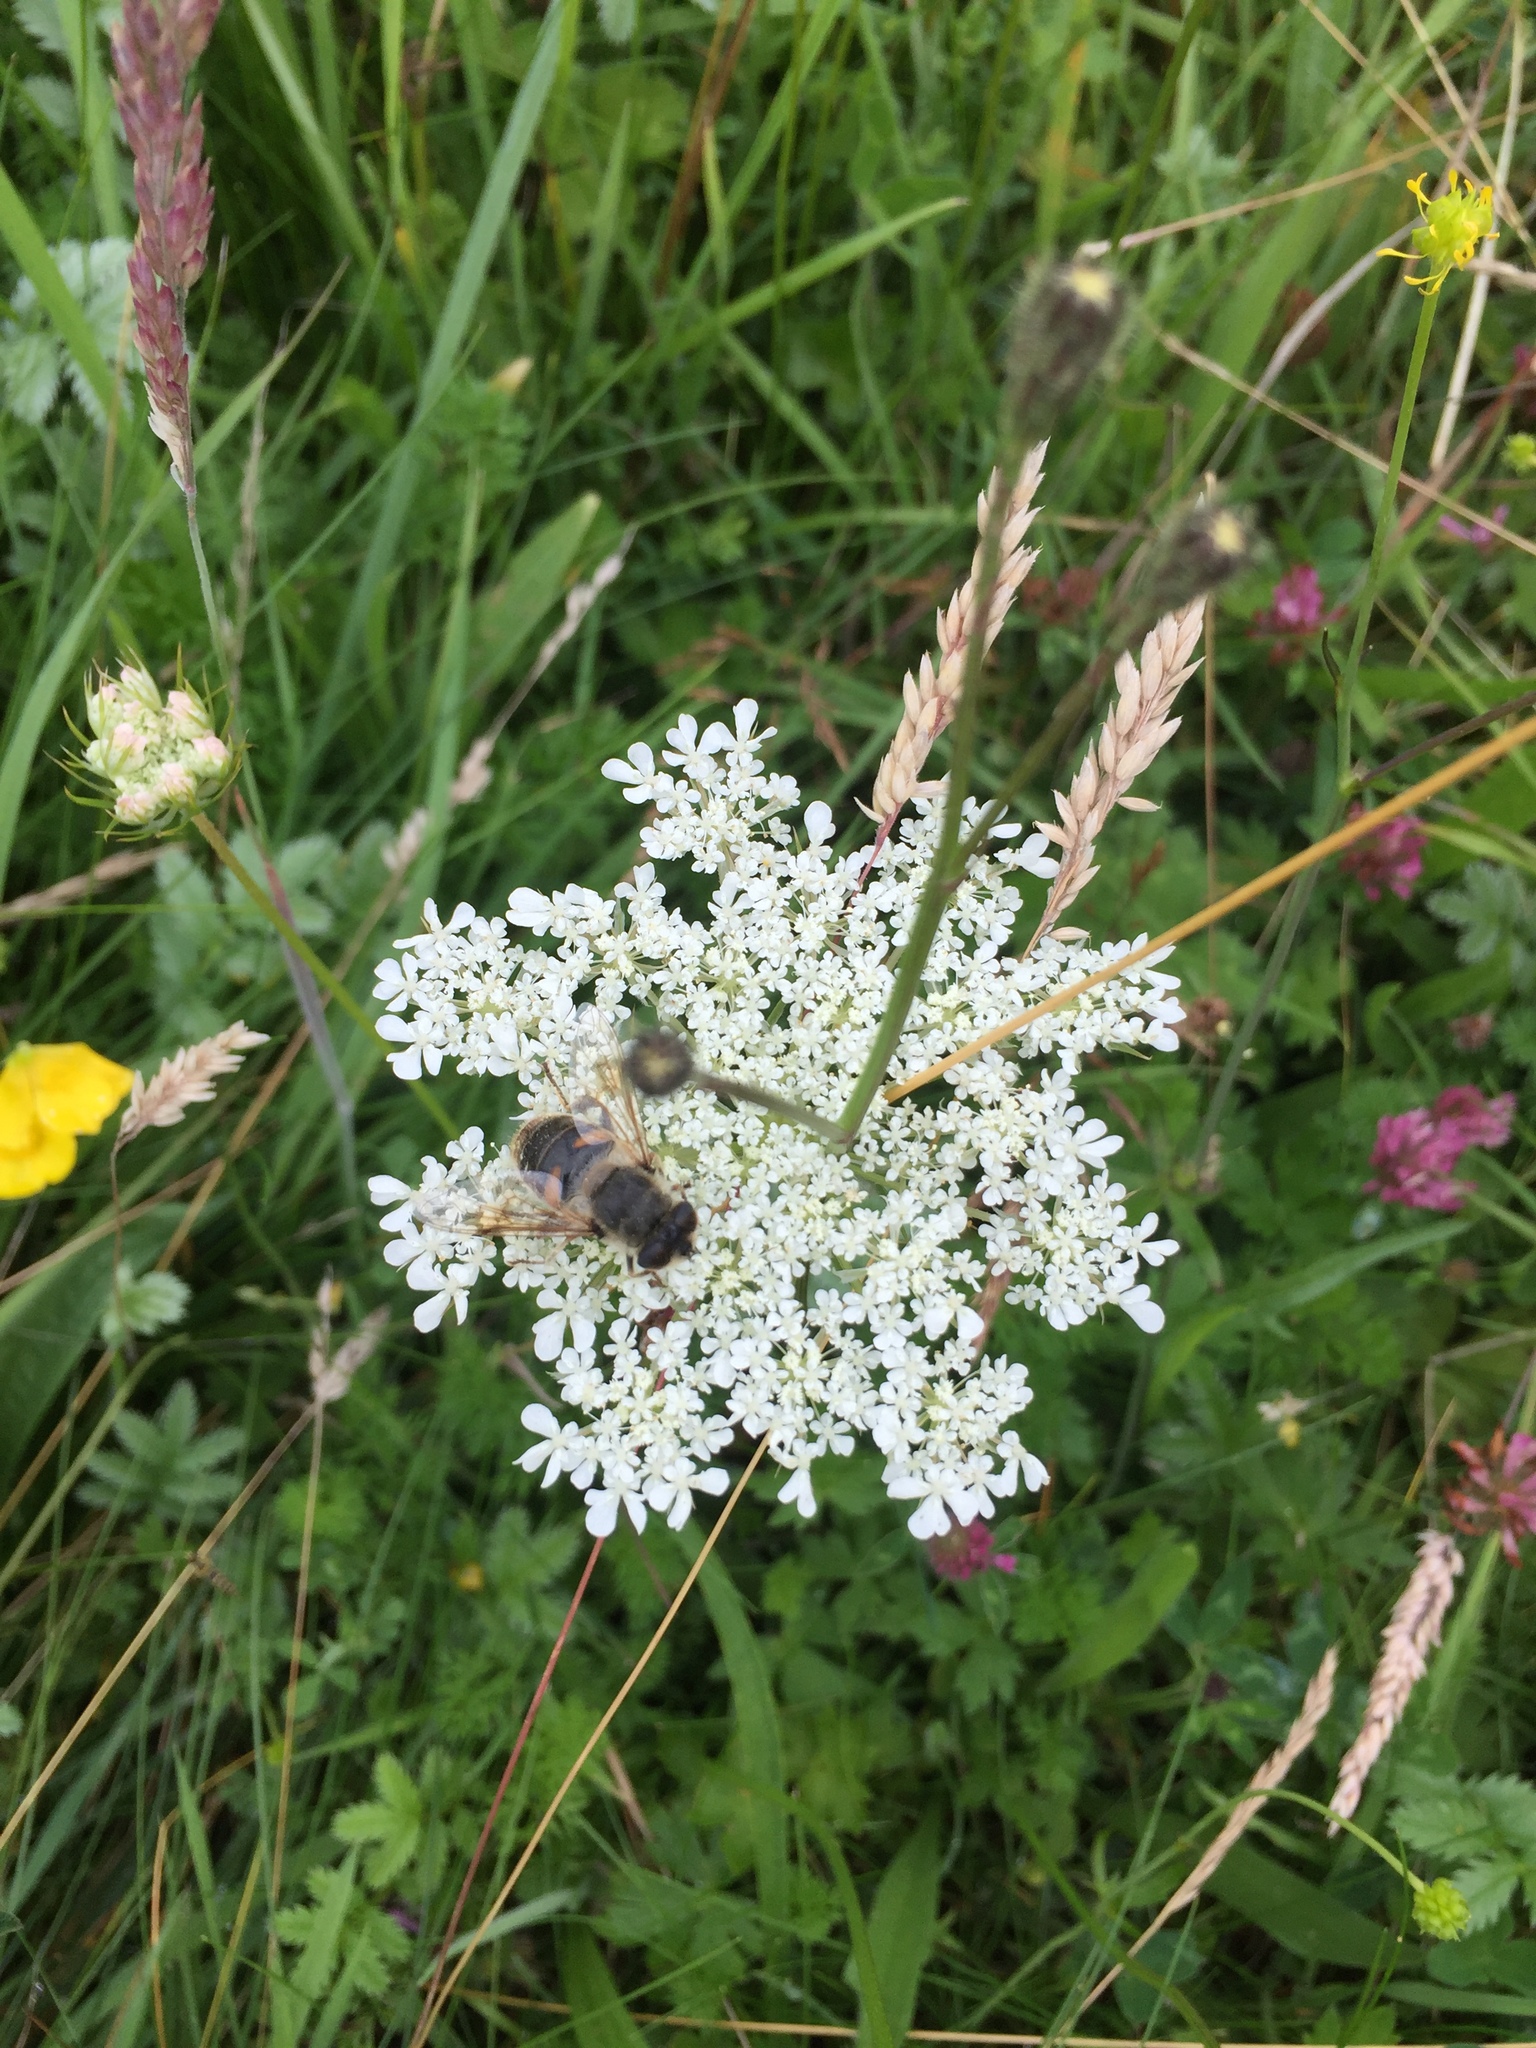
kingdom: Animalia
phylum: Arthropoda
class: Insecta
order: Diptera
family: Syrphidae
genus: Eristalis
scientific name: Eristalis tenax
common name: Drone fly
